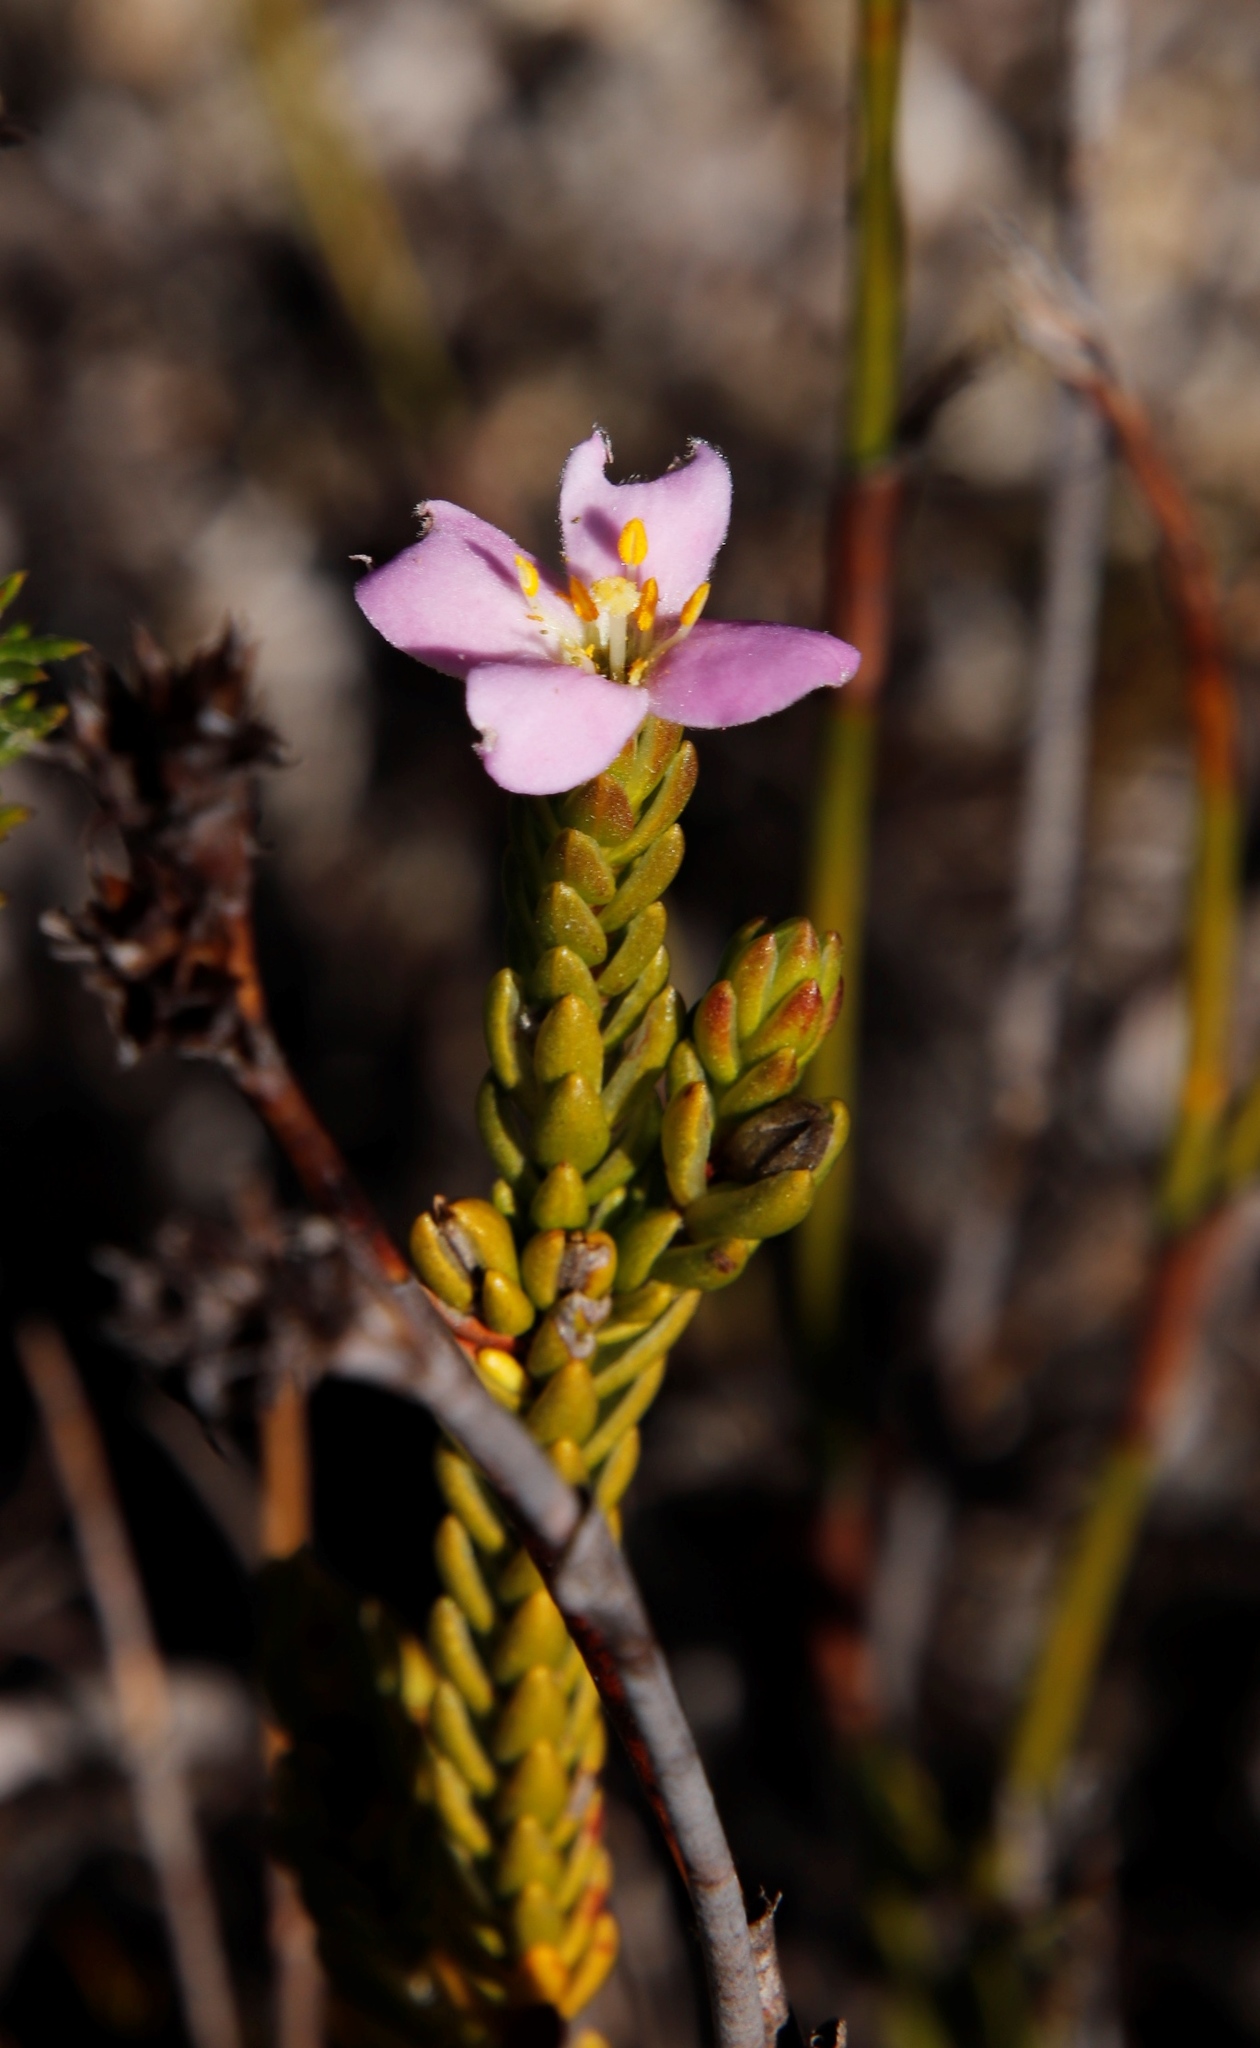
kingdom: Plantae
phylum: Tracheophyta
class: Magnoliopsida
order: Malvales
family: Thymelaeaceae
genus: Lachnaea
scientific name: Lachnaea grandiflora
